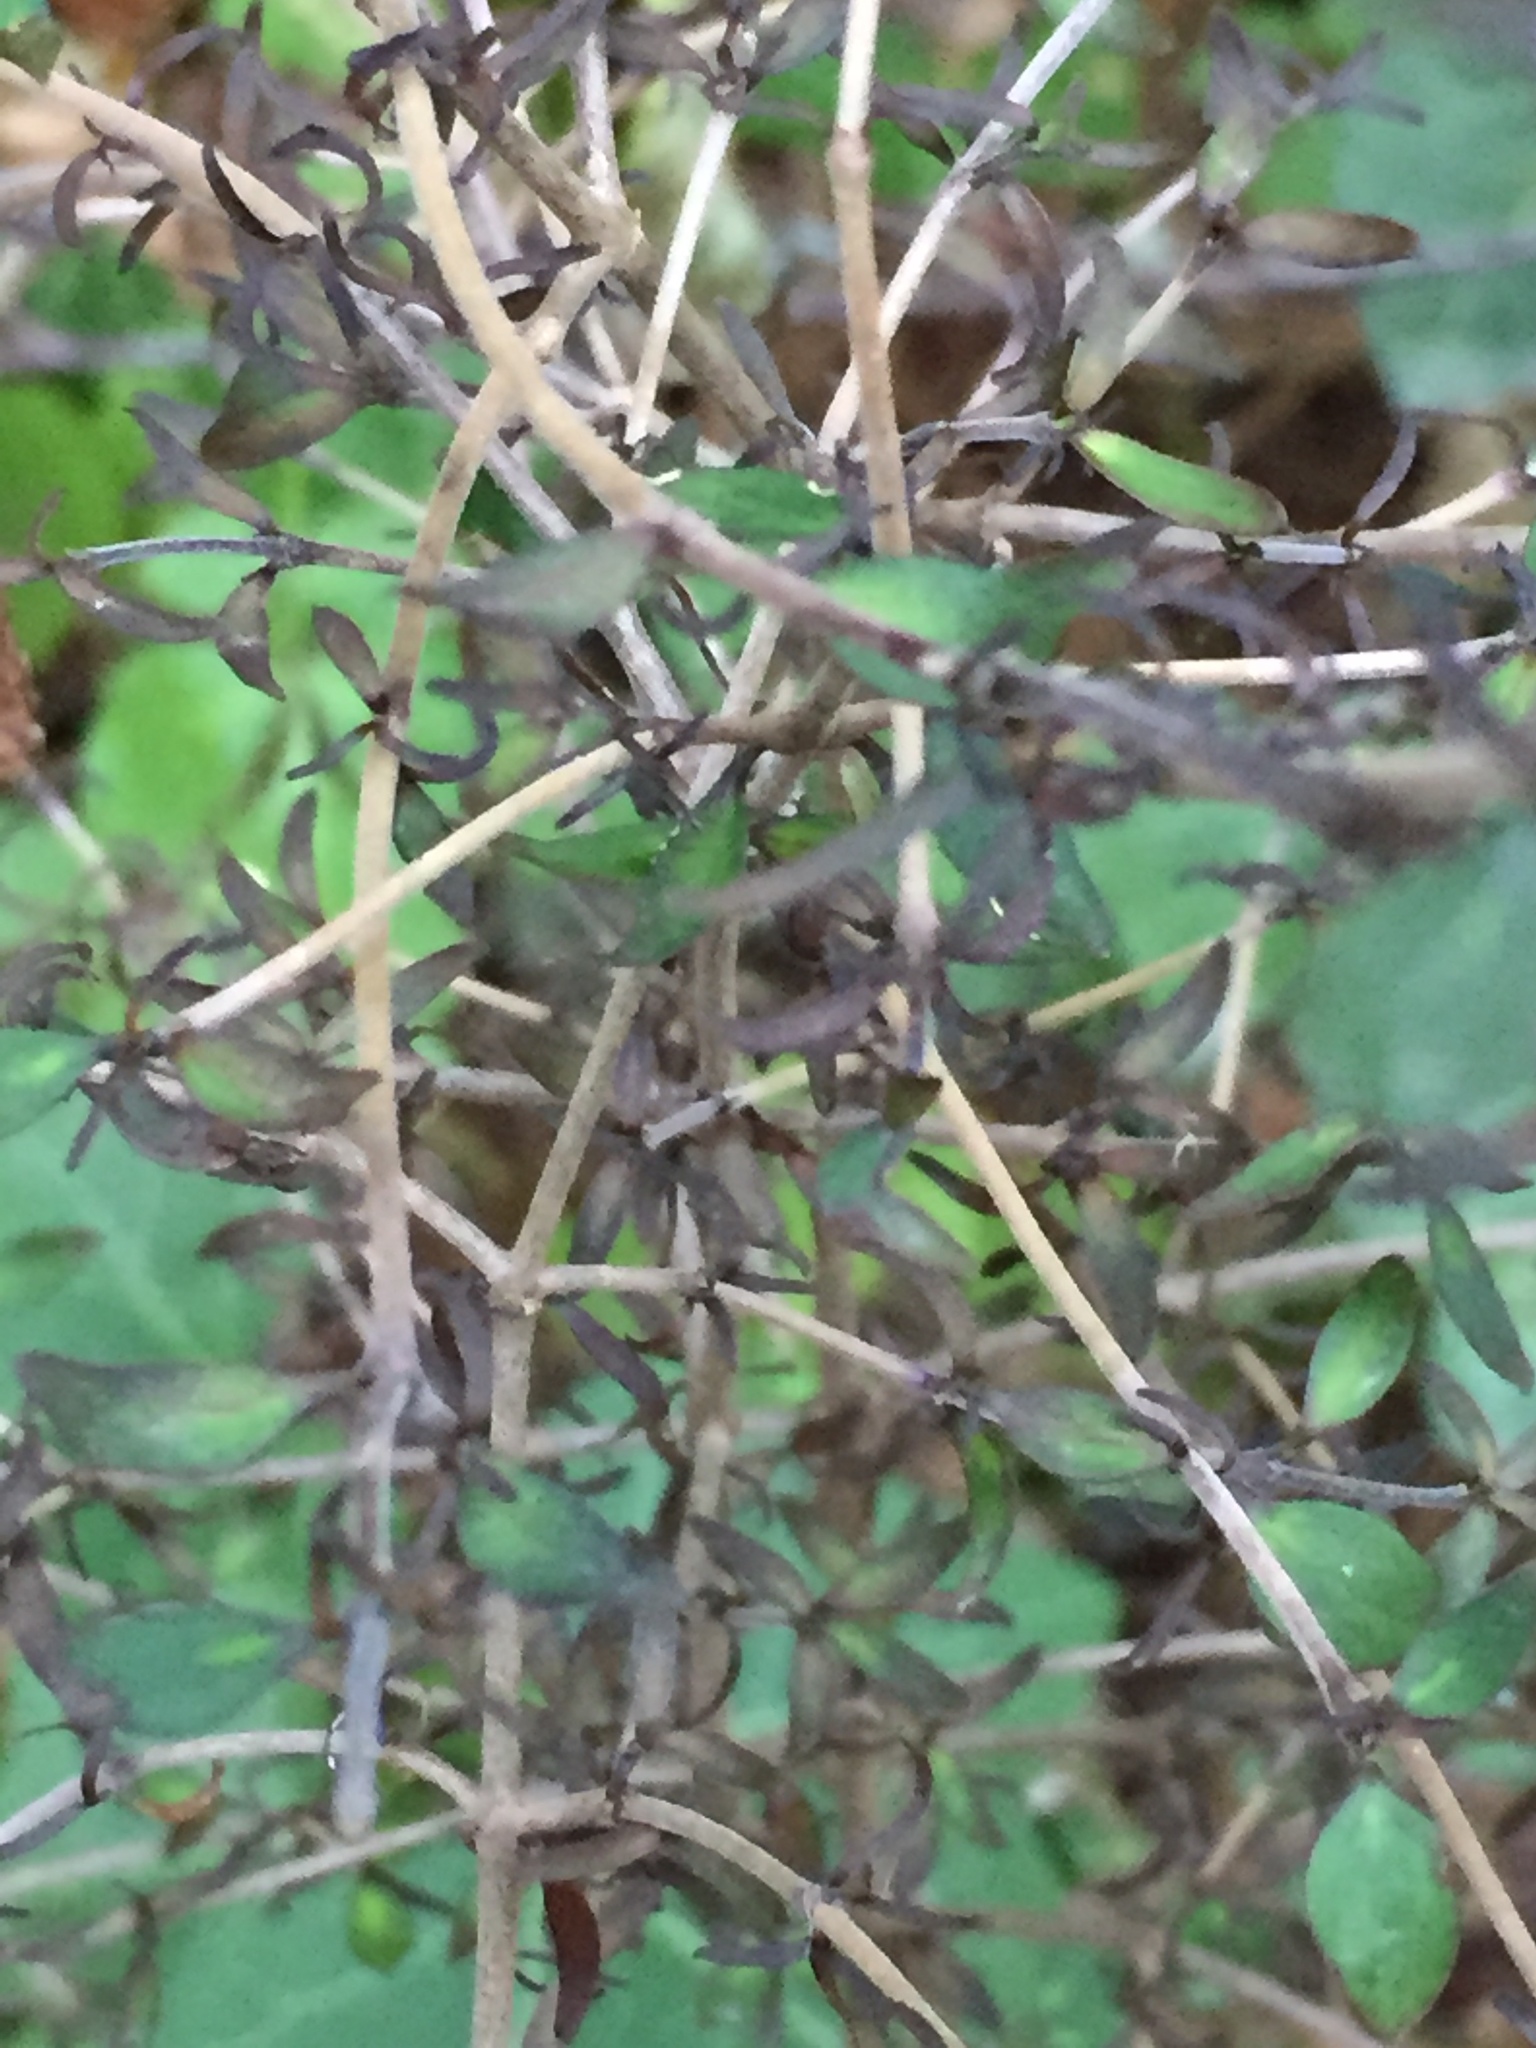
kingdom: Plantae
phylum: Tracheophyta
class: Magnoliopsida
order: Gentianales
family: Rubiaceae
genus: Coprosma
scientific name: Coprosma rhamnoides
